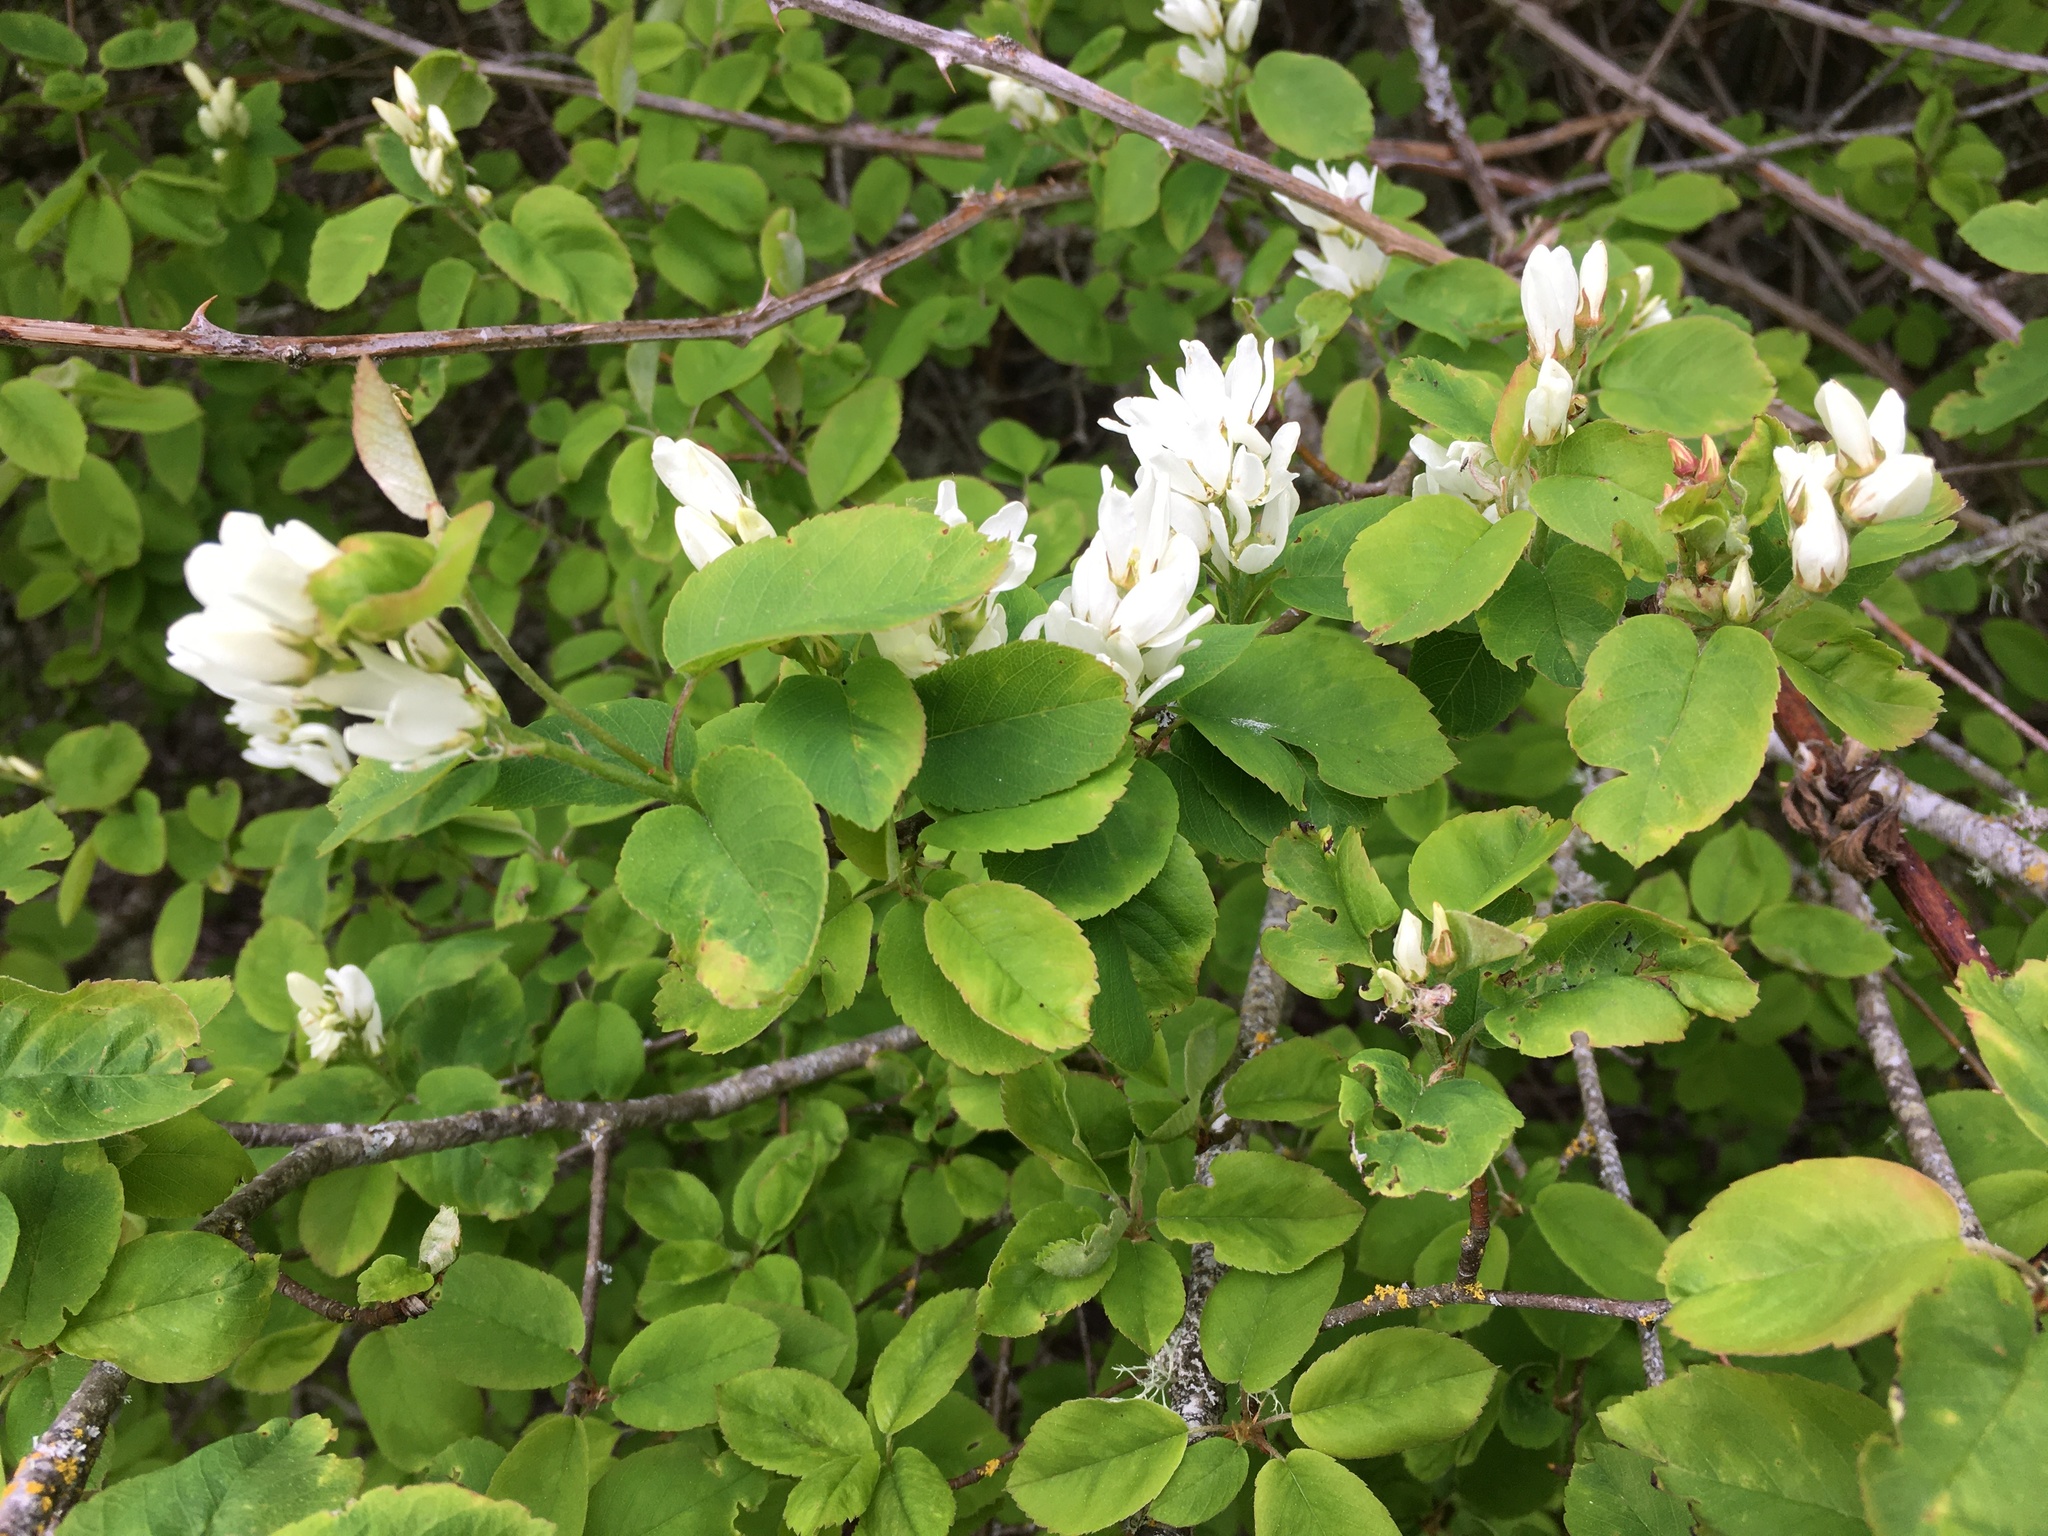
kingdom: Plantae
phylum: Tracheophyta
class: Magnoliopsida
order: Rosales
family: Rosaceae
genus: Amelanchier
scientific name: Amelanchier alnifolia
